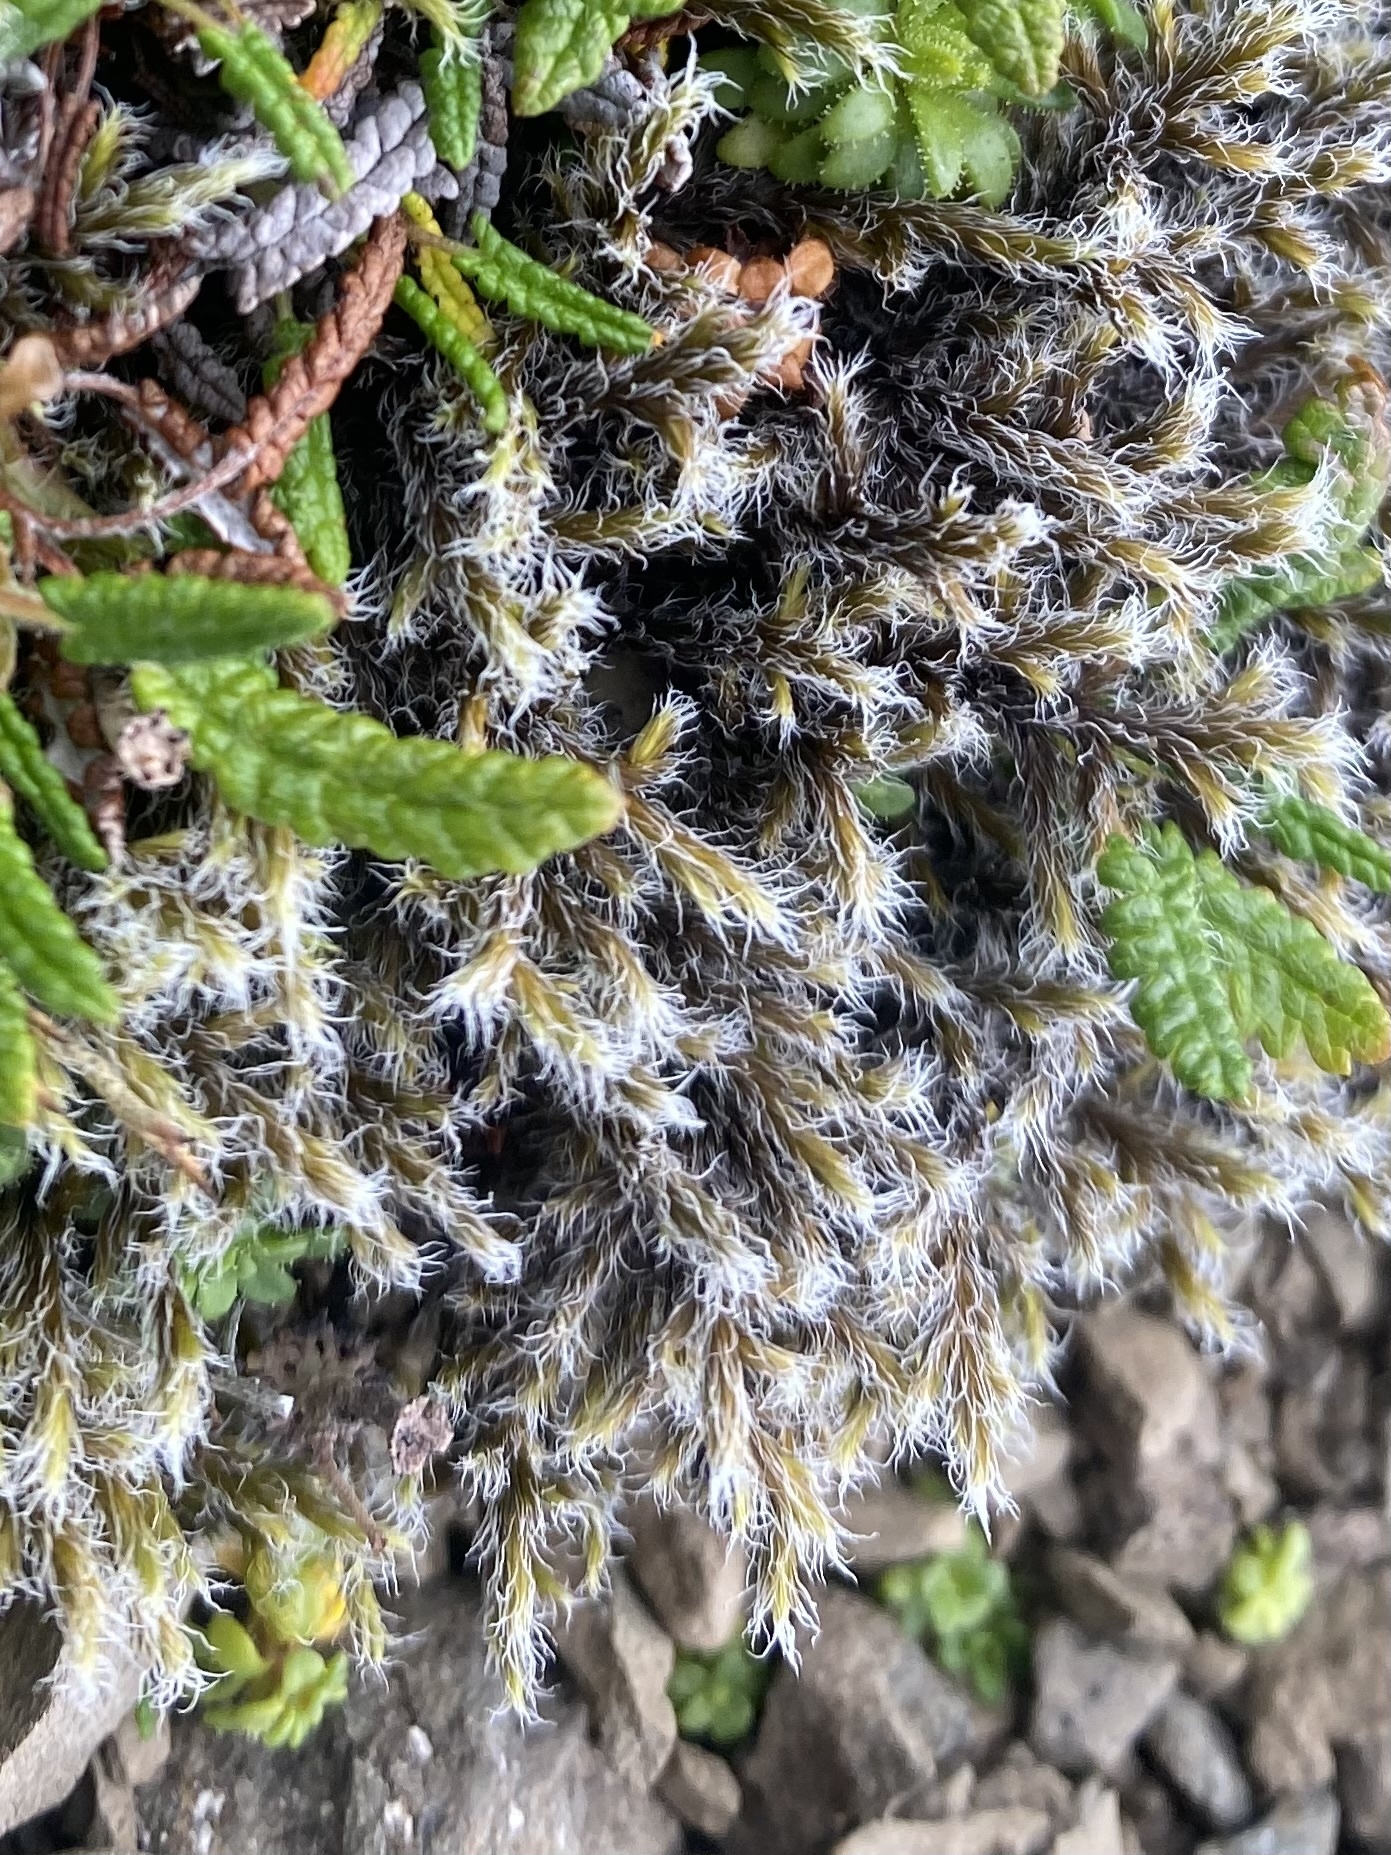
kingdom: Plantae
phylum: Bryophyta
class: Bryopsida
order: Grimmiales
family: Grimmiaceae
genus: Racomitrium
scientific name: Racomitrium lanuginosum
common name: Hoary rock moss
